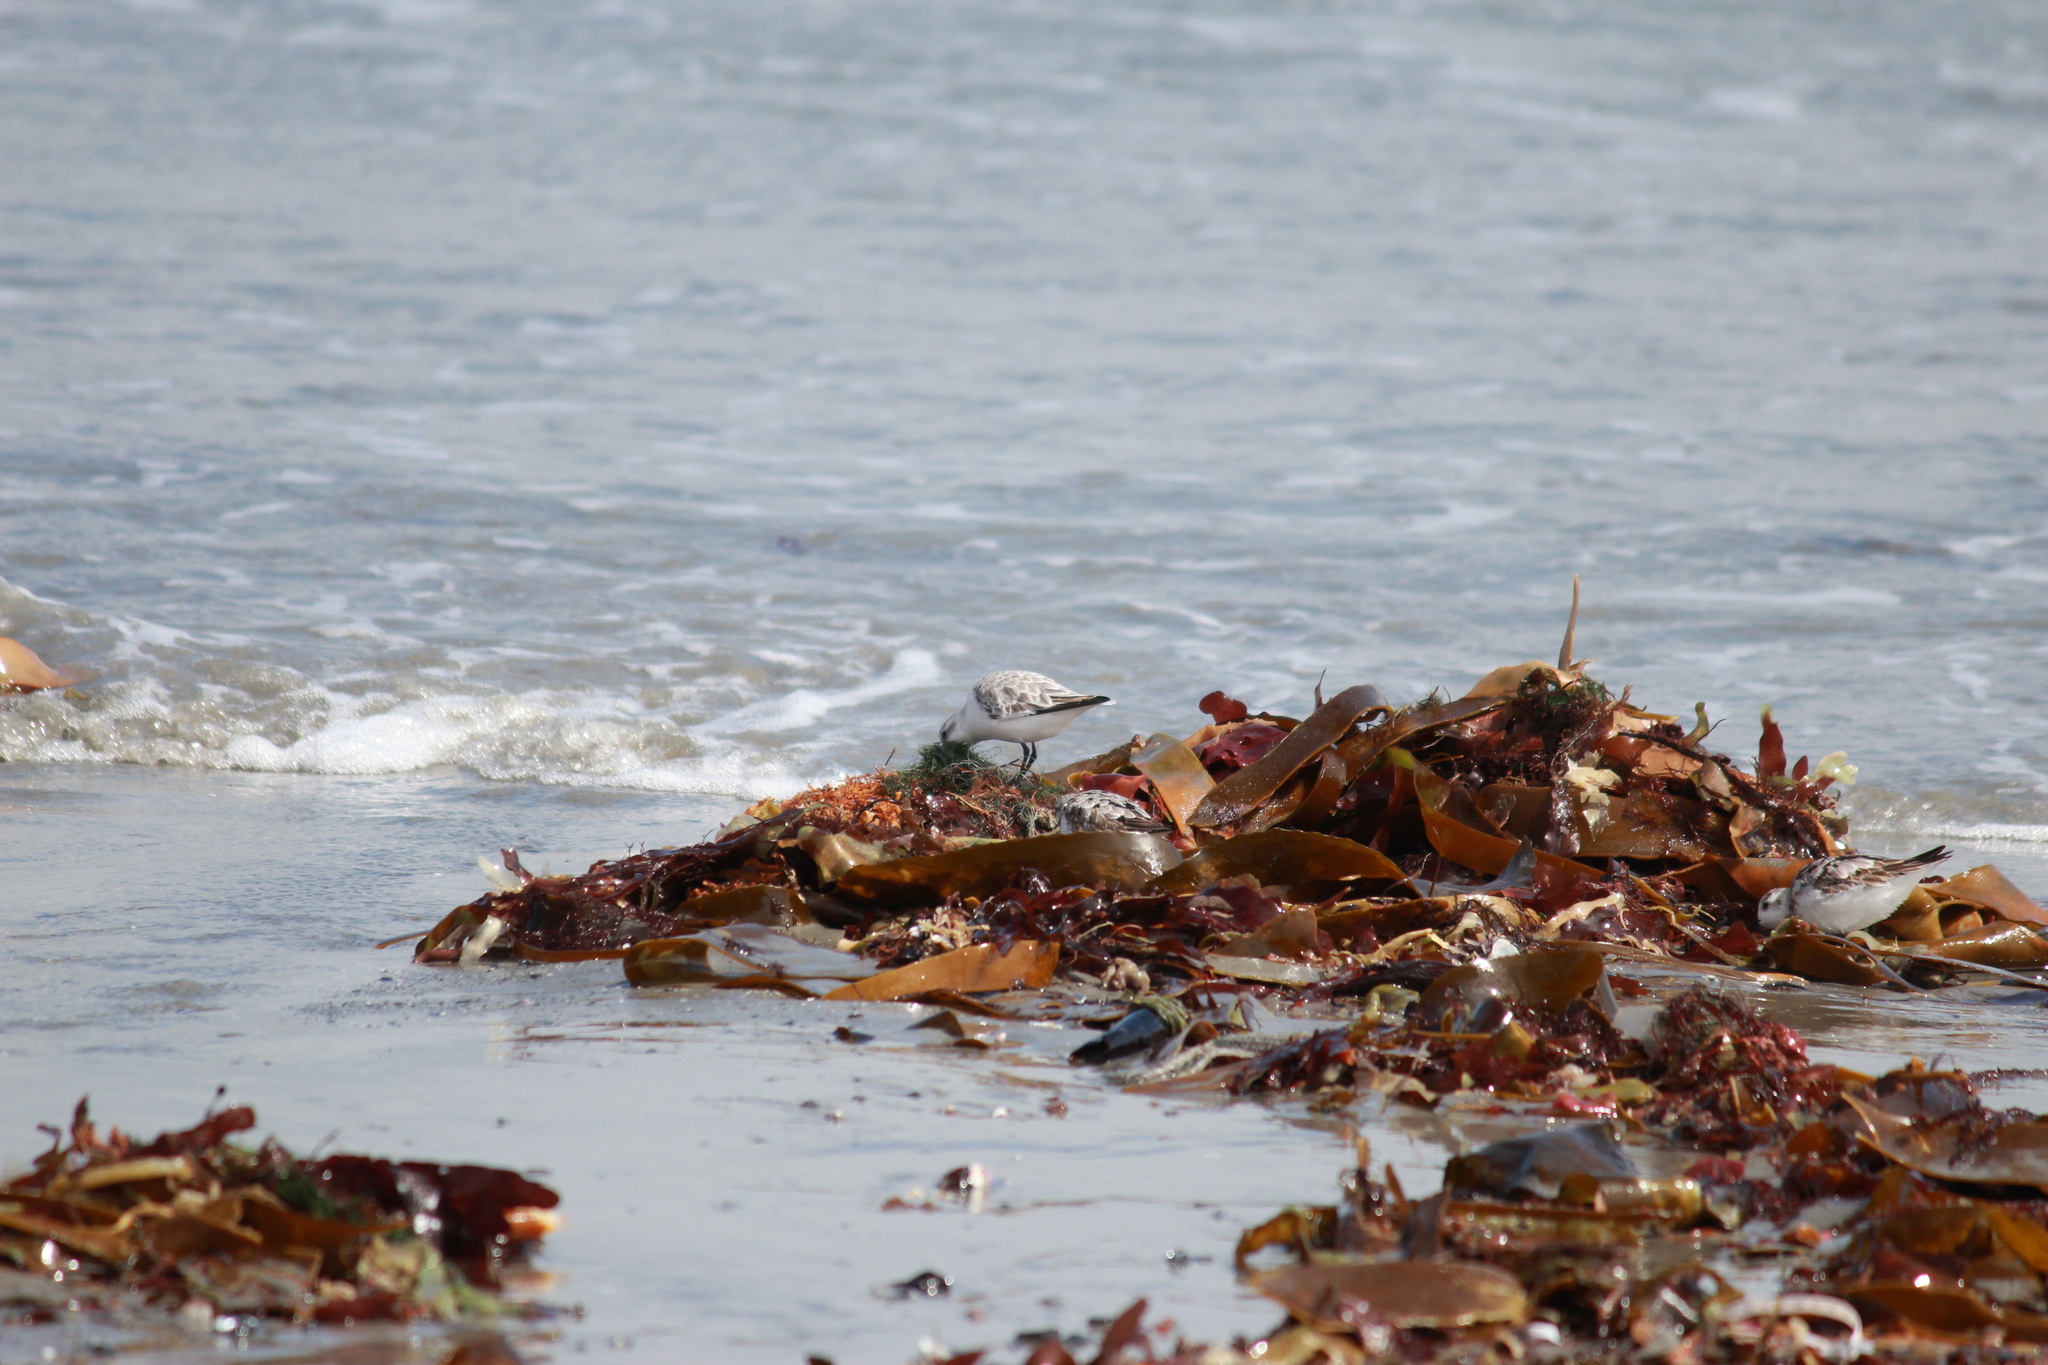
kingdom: Animalia
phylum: Chordata
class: Aves
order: Charadriiformes
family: Scolopacidae
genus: Calidris
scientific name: Calidris alba
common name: Sanderling
